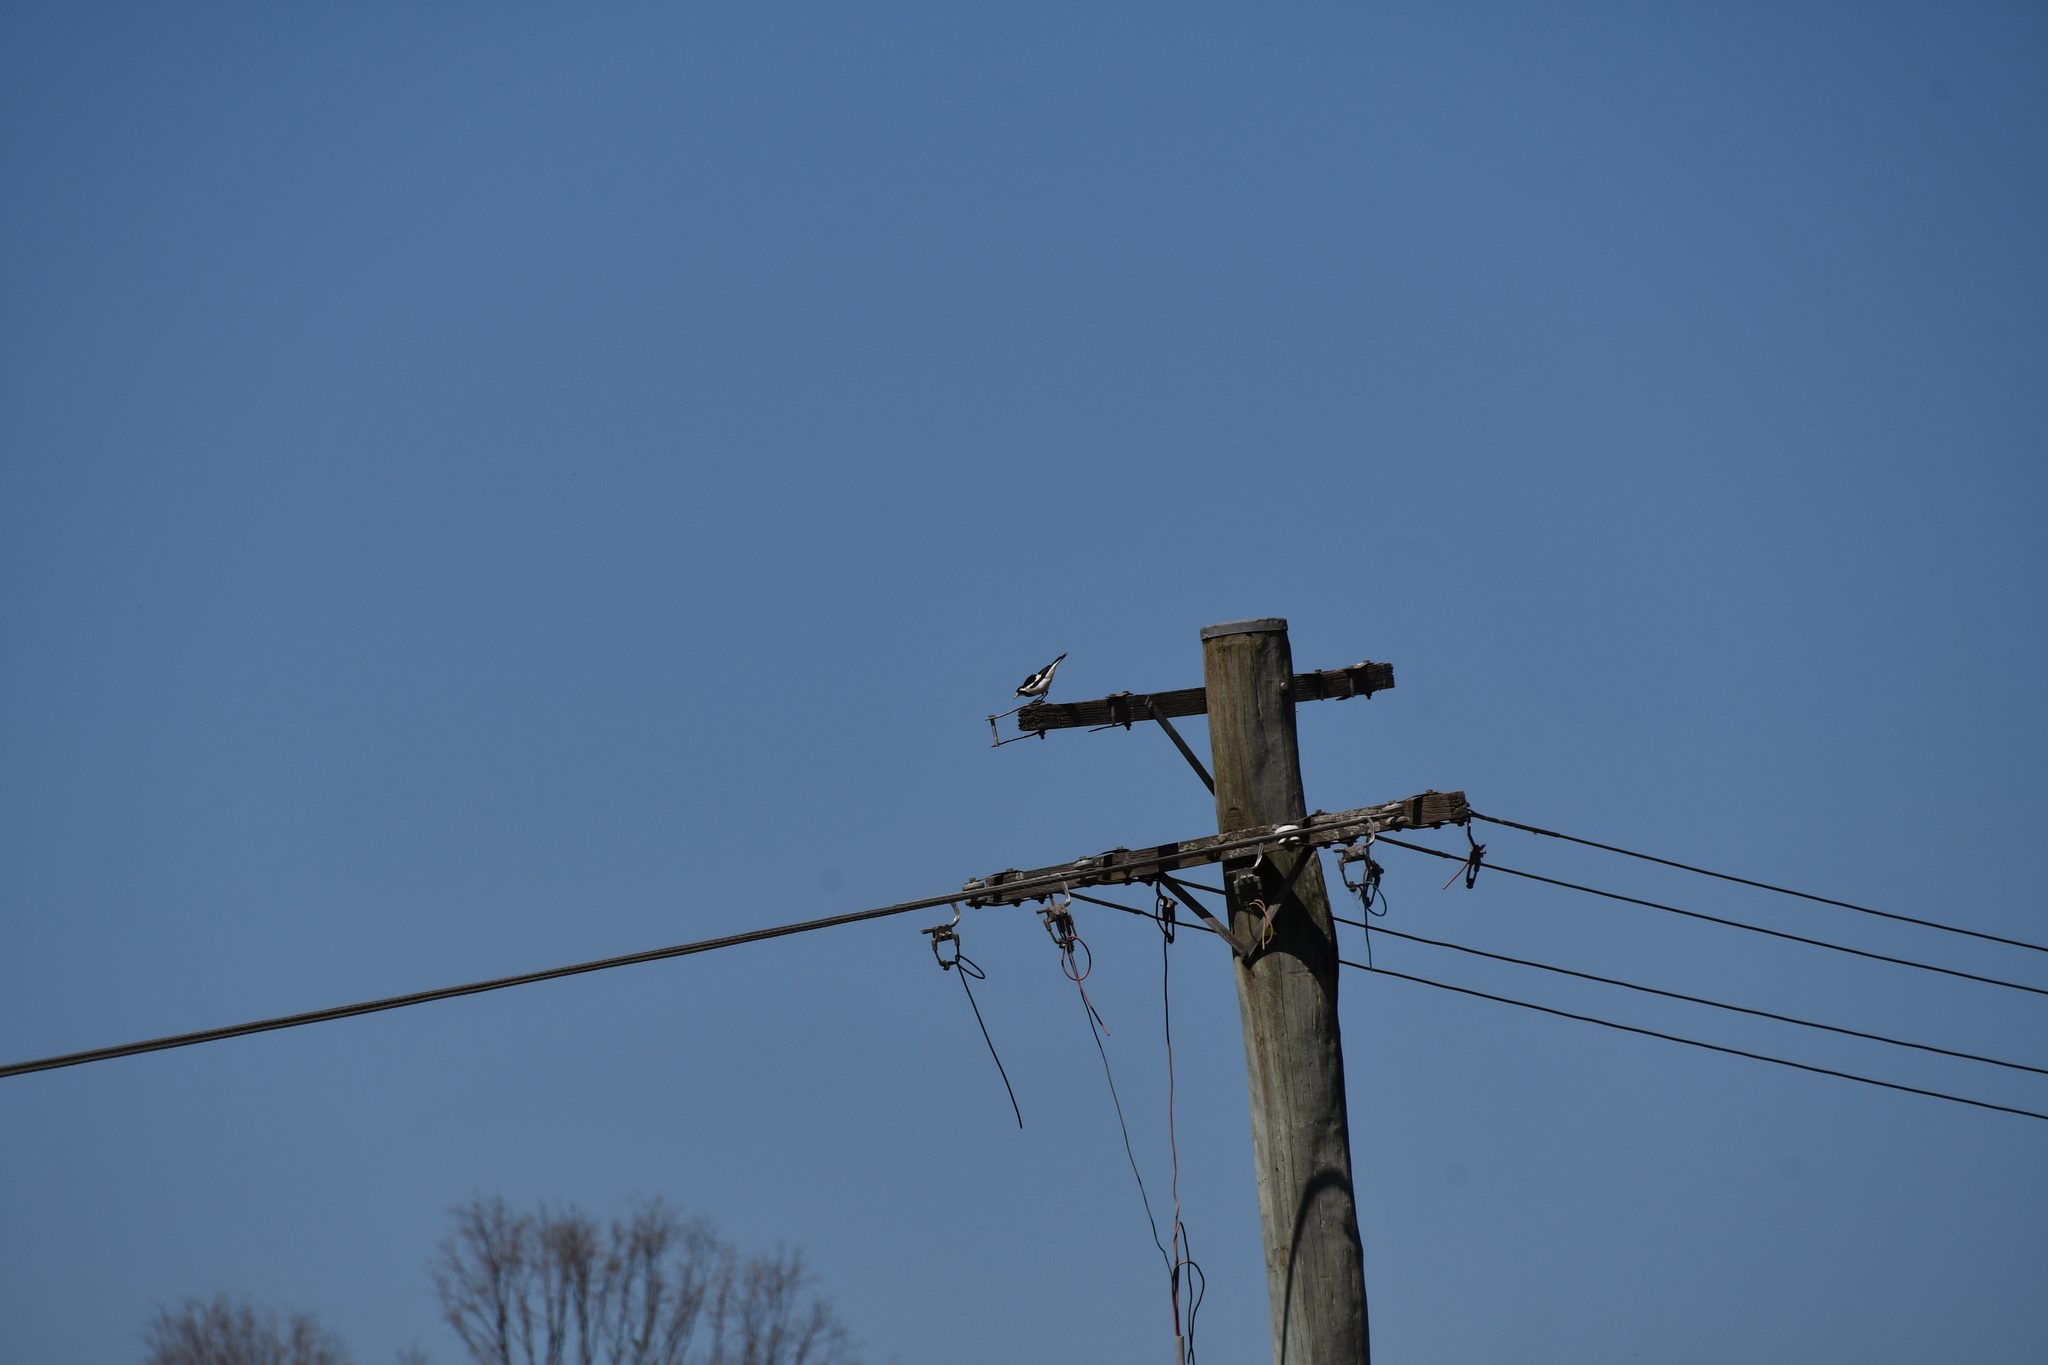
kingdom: Animalia
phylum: Chordata
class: Aves
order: Passeriformes
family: Monarchidae
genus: Grallina
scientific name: Grallina cyanoleuca
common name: Magpie-lark
